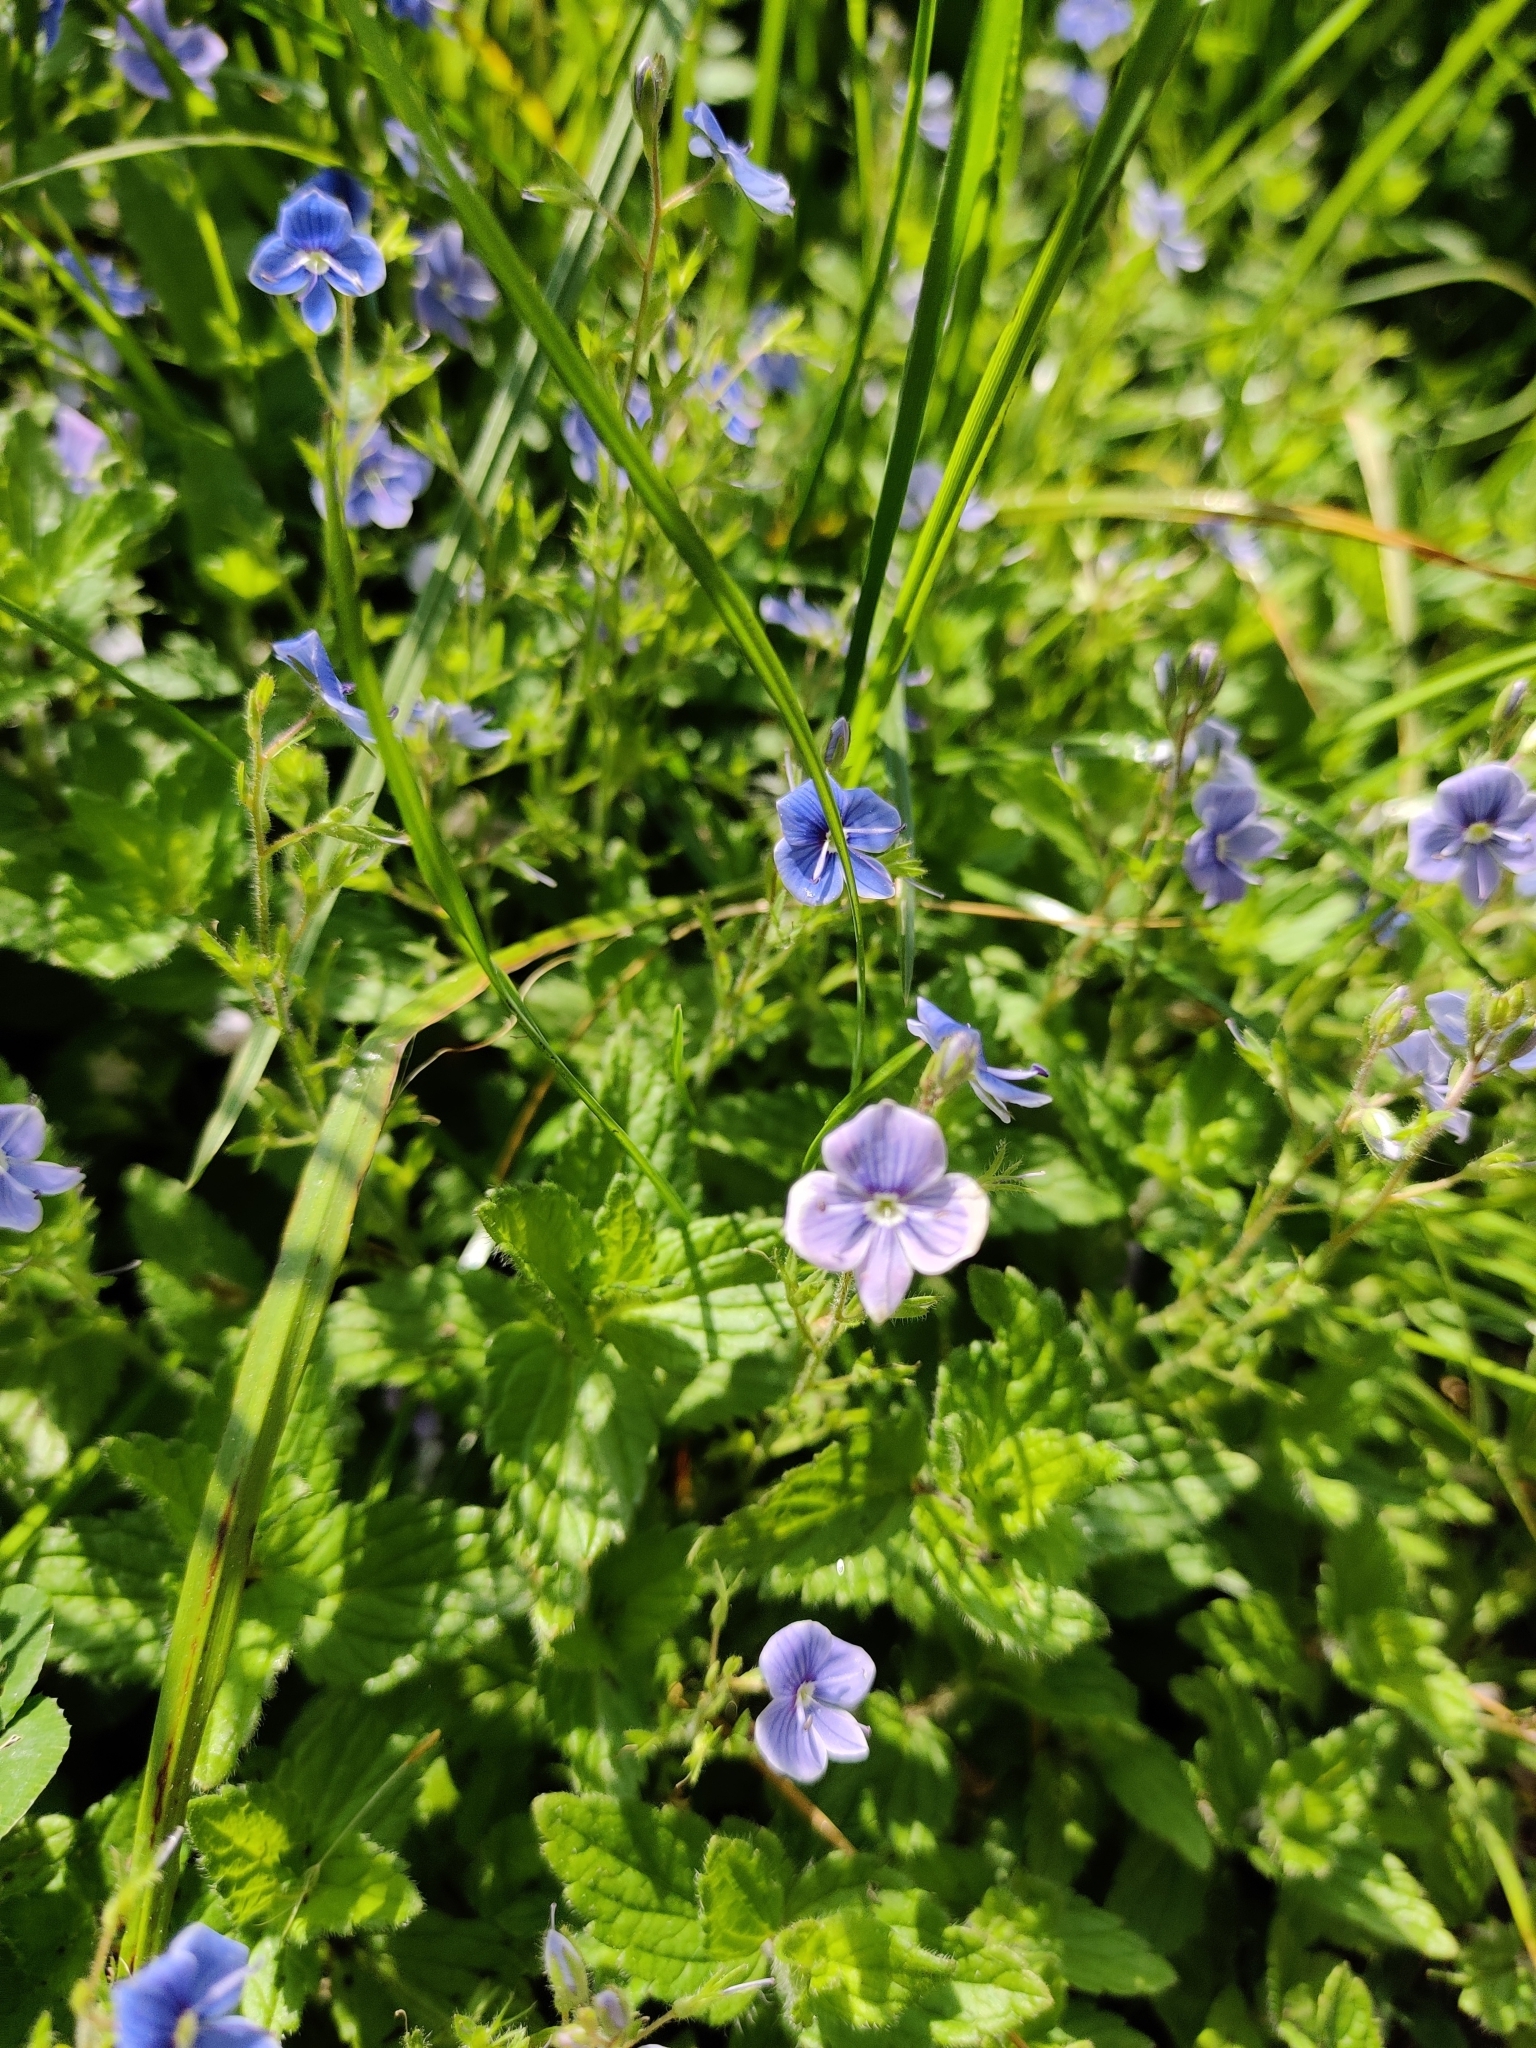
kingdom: Plantae
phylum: Tracheophyta
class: Magnoliopsida
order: Lamiales
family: Plantaginaceae
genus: Veronica
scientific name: Veronica chamaedrys
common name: Germander speedwell
